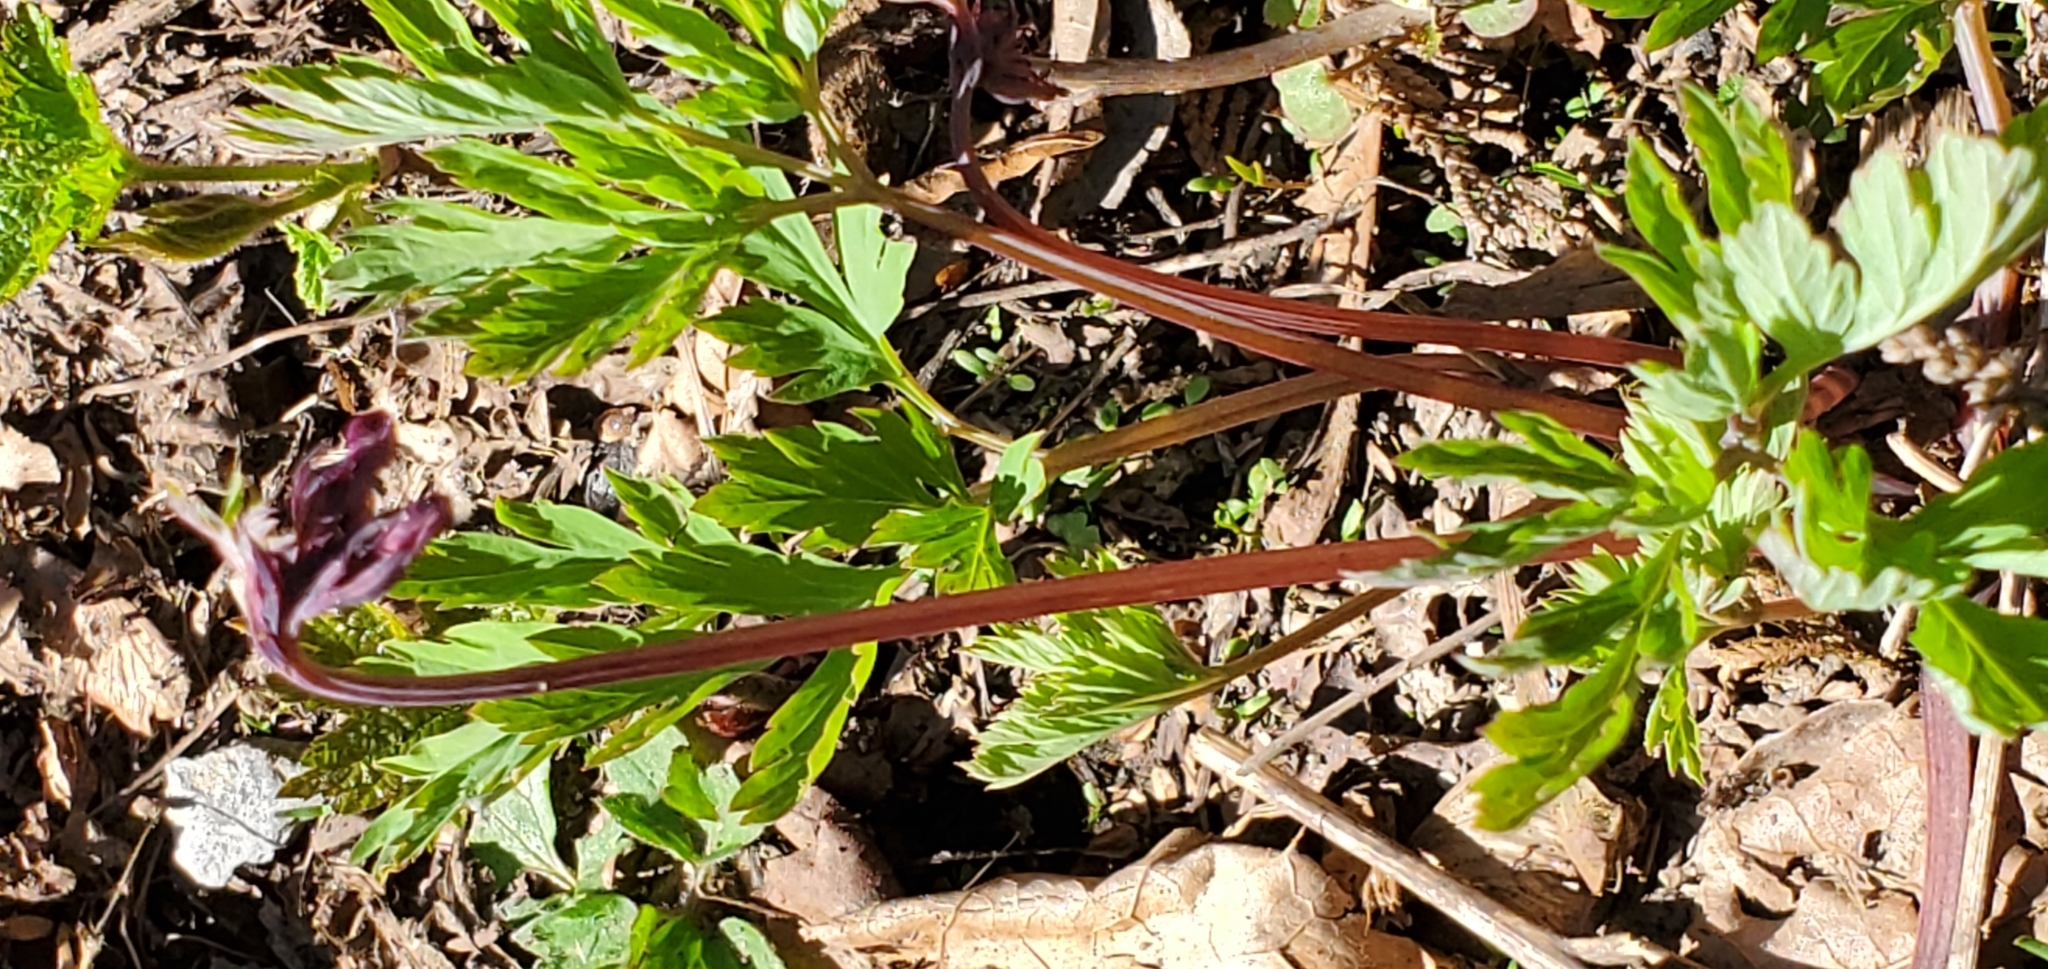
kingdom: Plantae
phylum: Tracheophyta
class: Magnoliopsida
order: Ranunculales
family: Papaveraceae
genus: Dicentra
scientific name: Dicentra formosa
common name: Bleeding-heart
